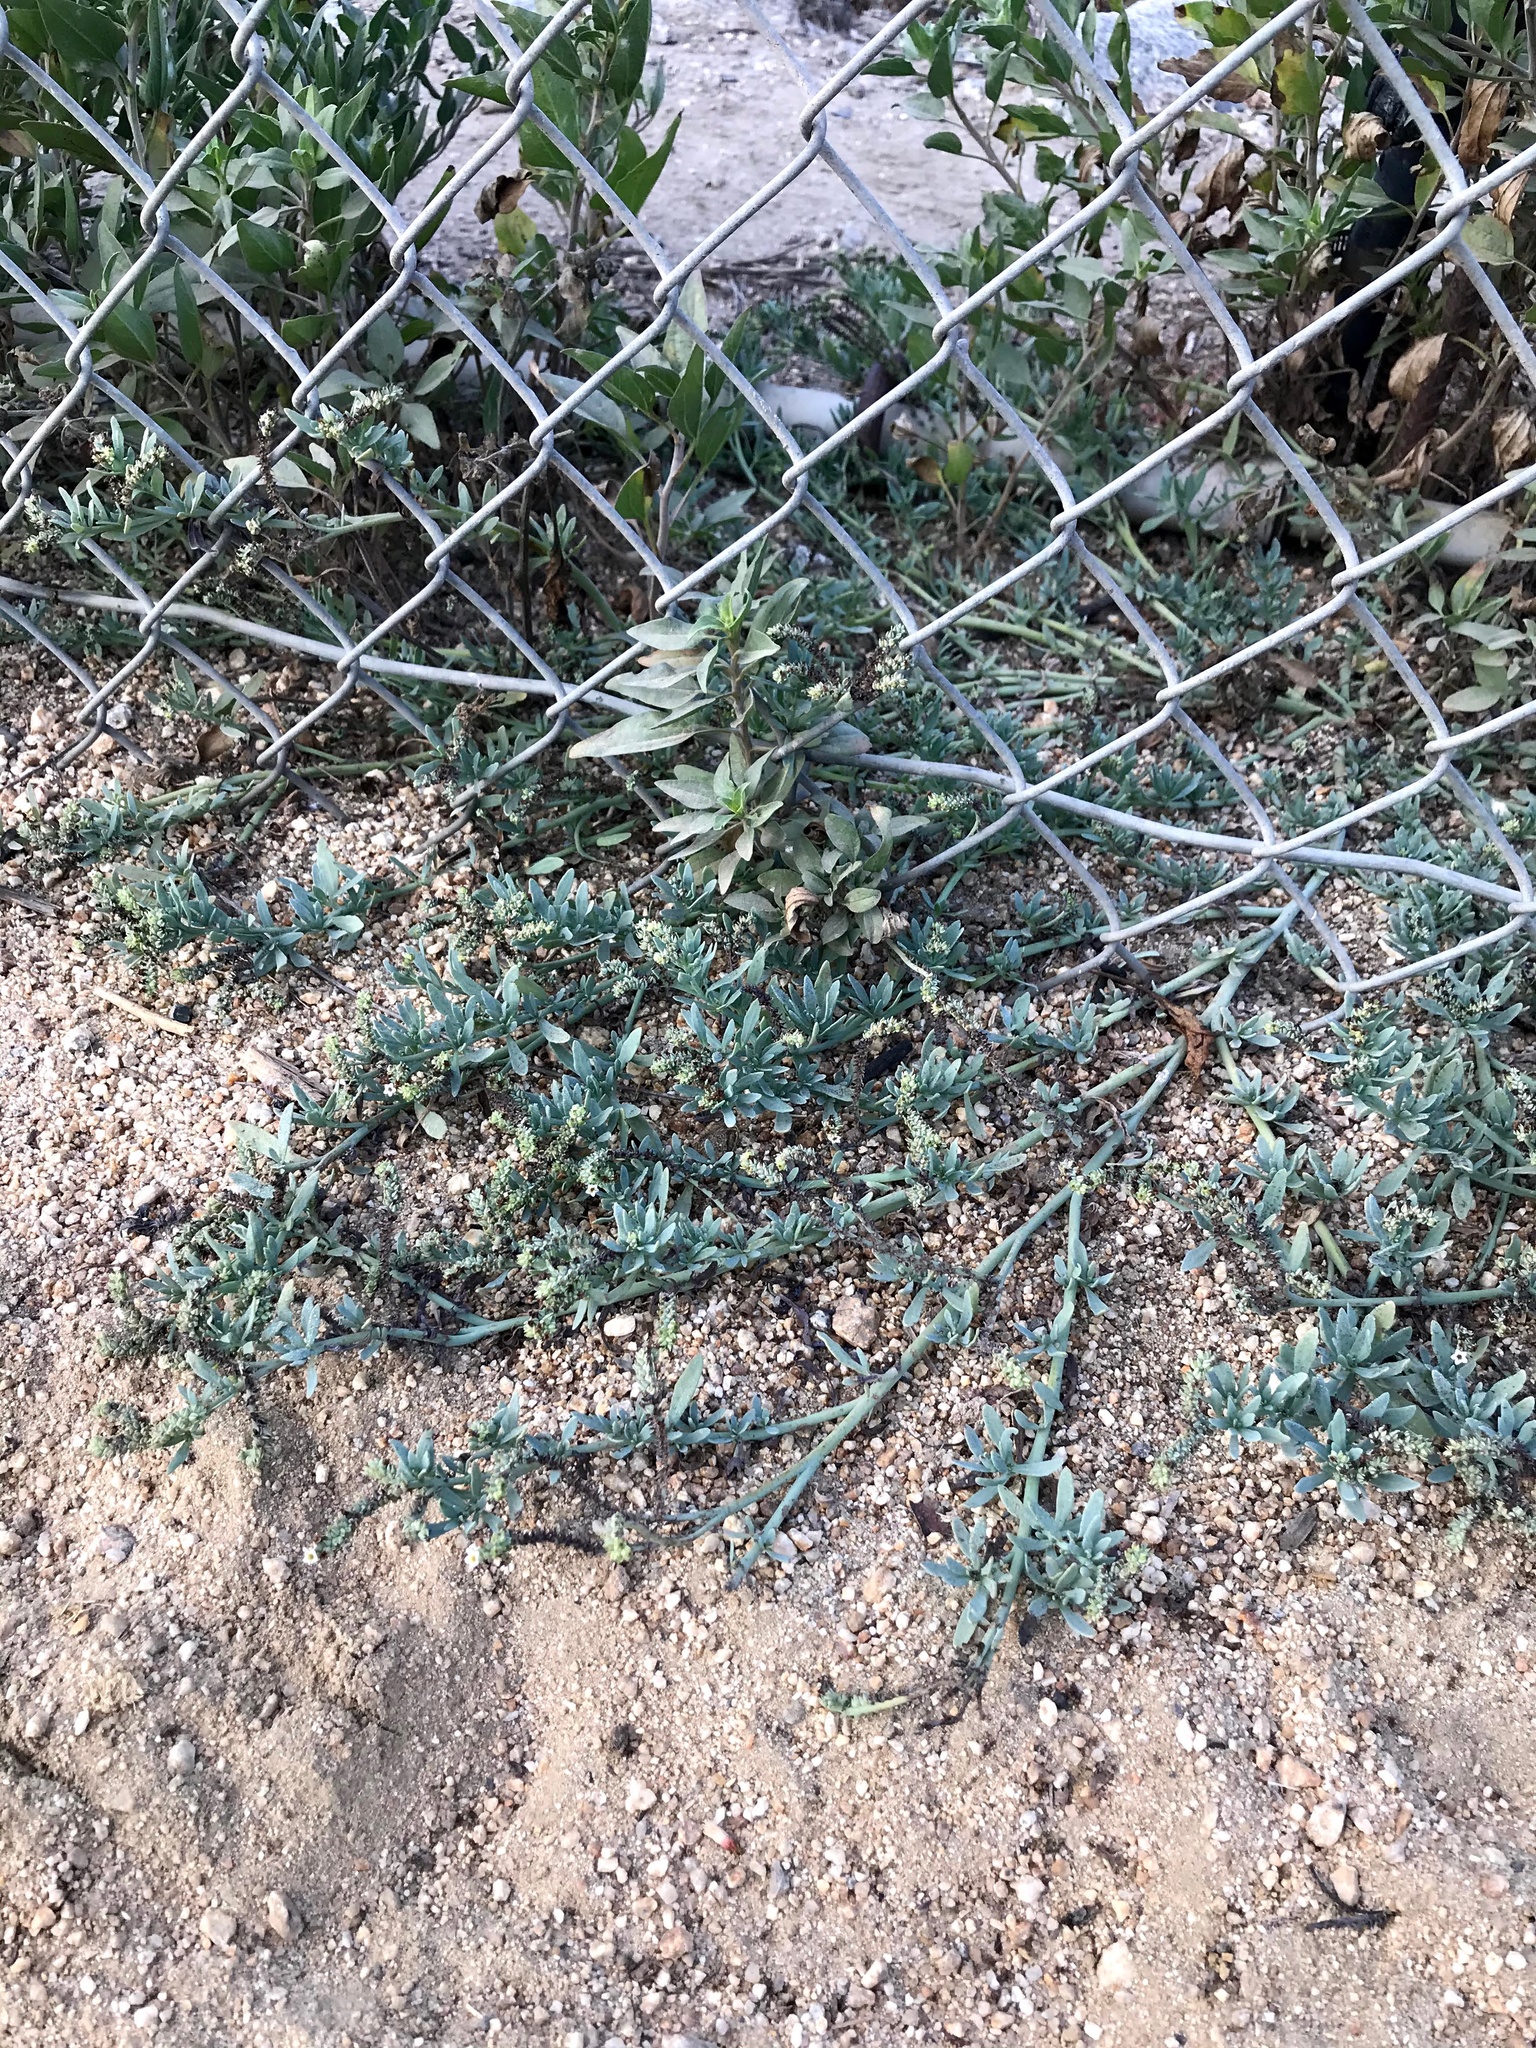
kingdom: Plantae
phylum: Tracheophyta
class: Magnoliopsida
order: Boraginales
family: Heliotropiaceae
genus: Heliotropium
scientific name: Heliotropium curassavicum
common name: Seaside heliotrope
